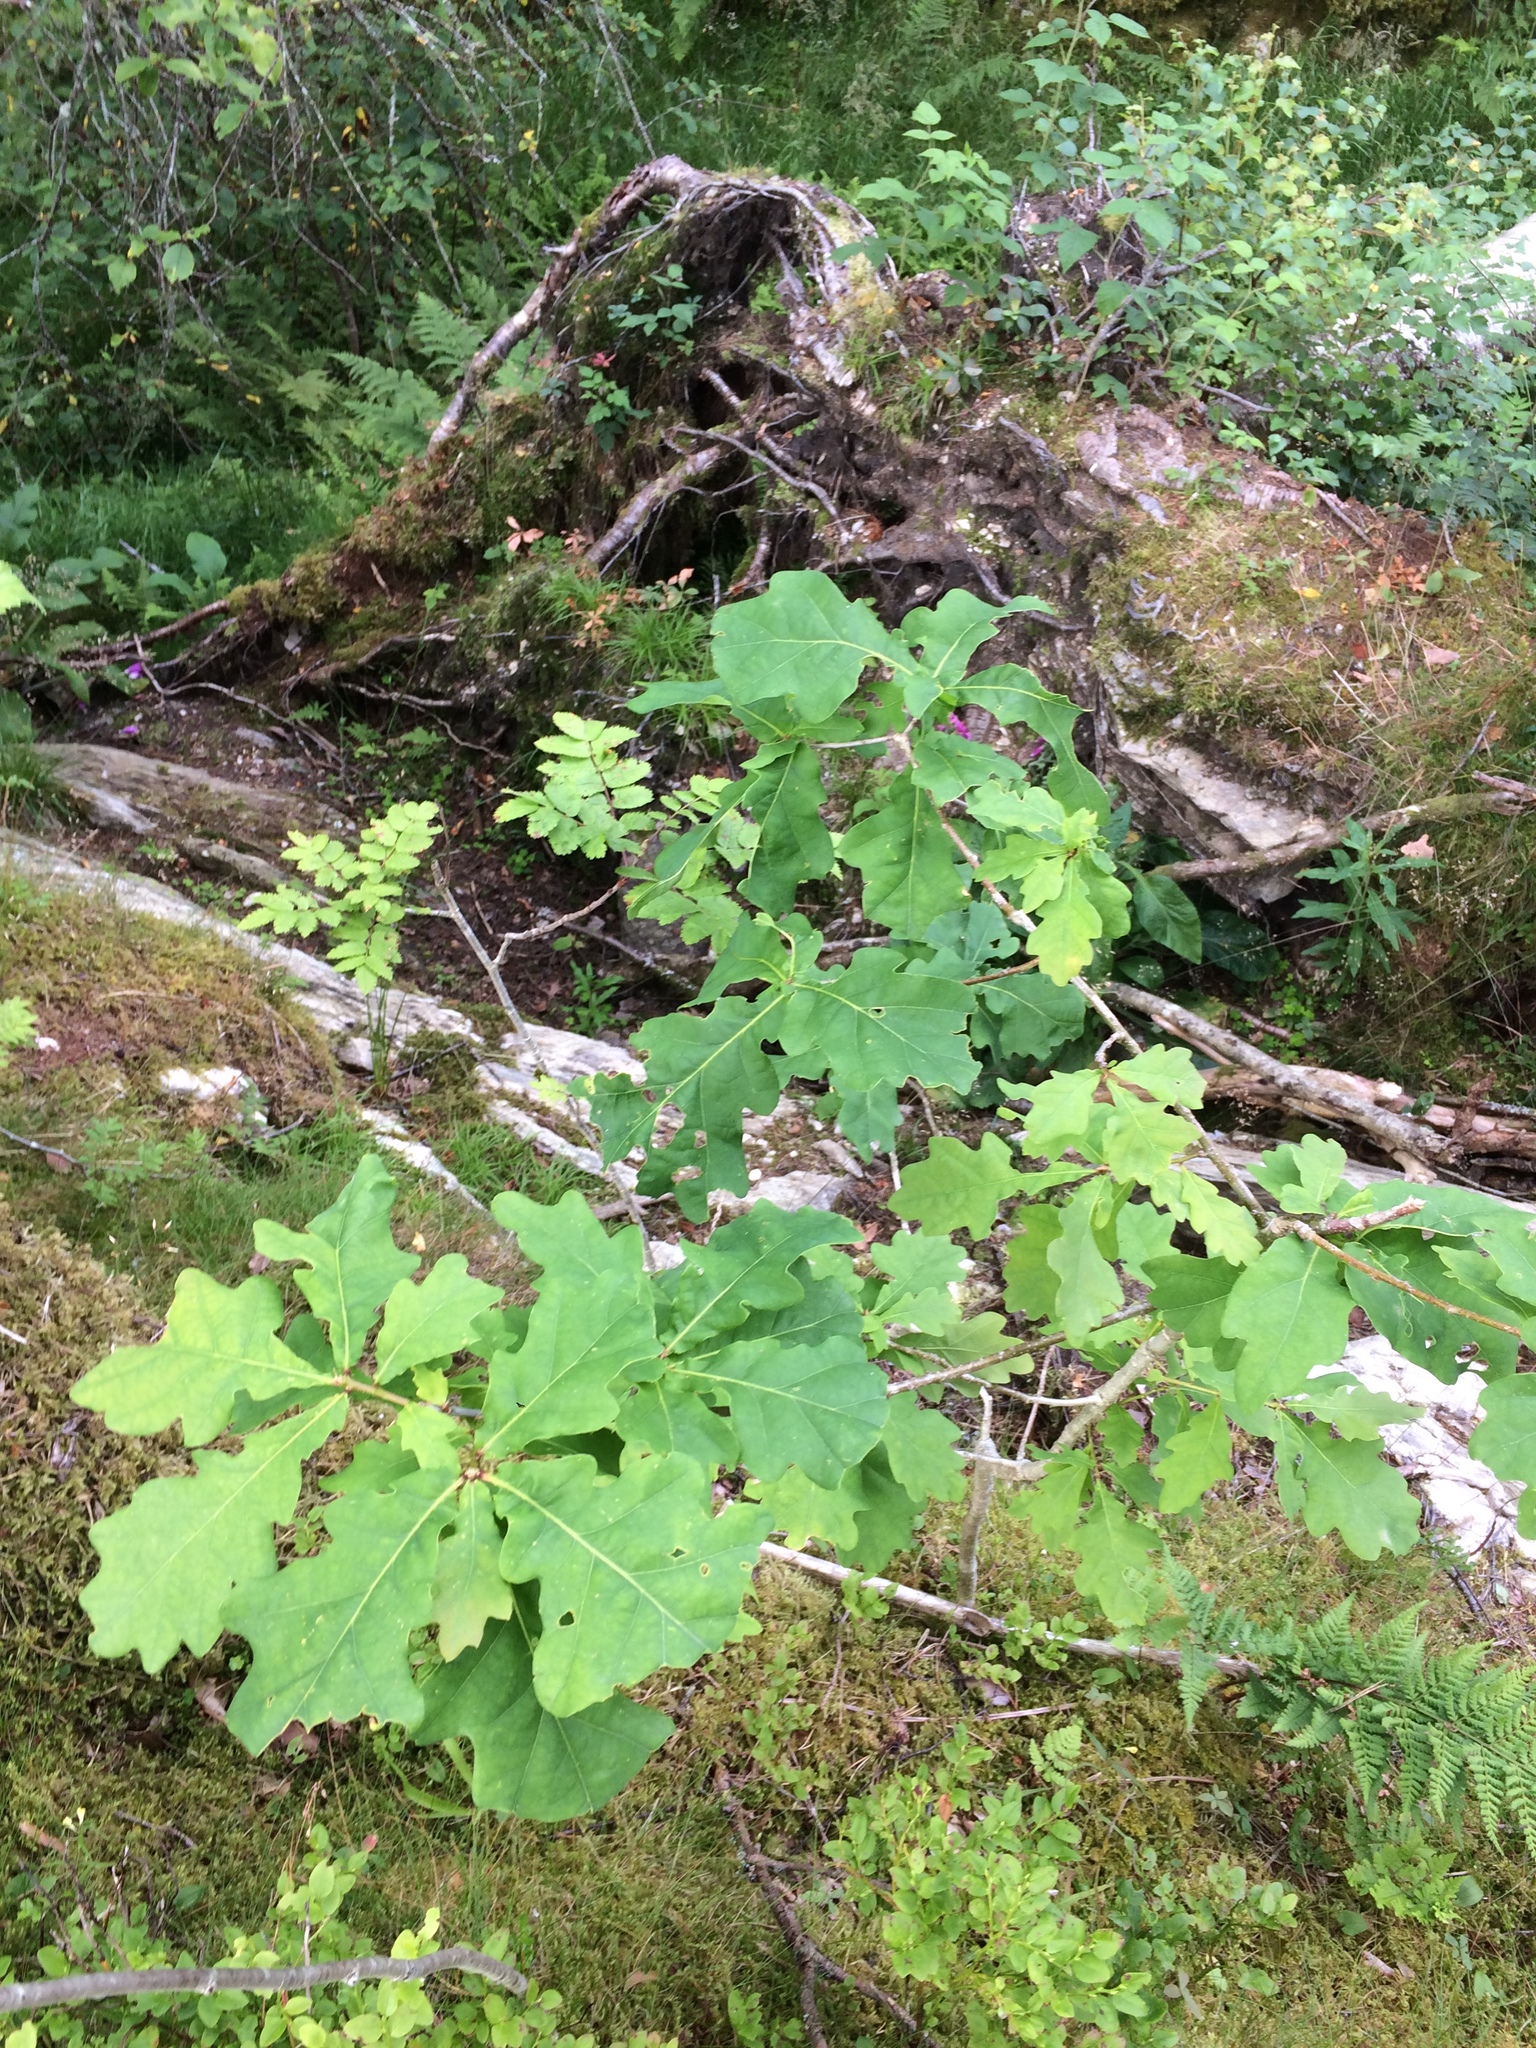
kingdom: Plantae
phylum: Tracheophyta
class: Magnoliopsida
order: Fagales
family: Fagaceae
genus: Quercus
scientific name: Quercus robur
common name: Pedunculate oak
